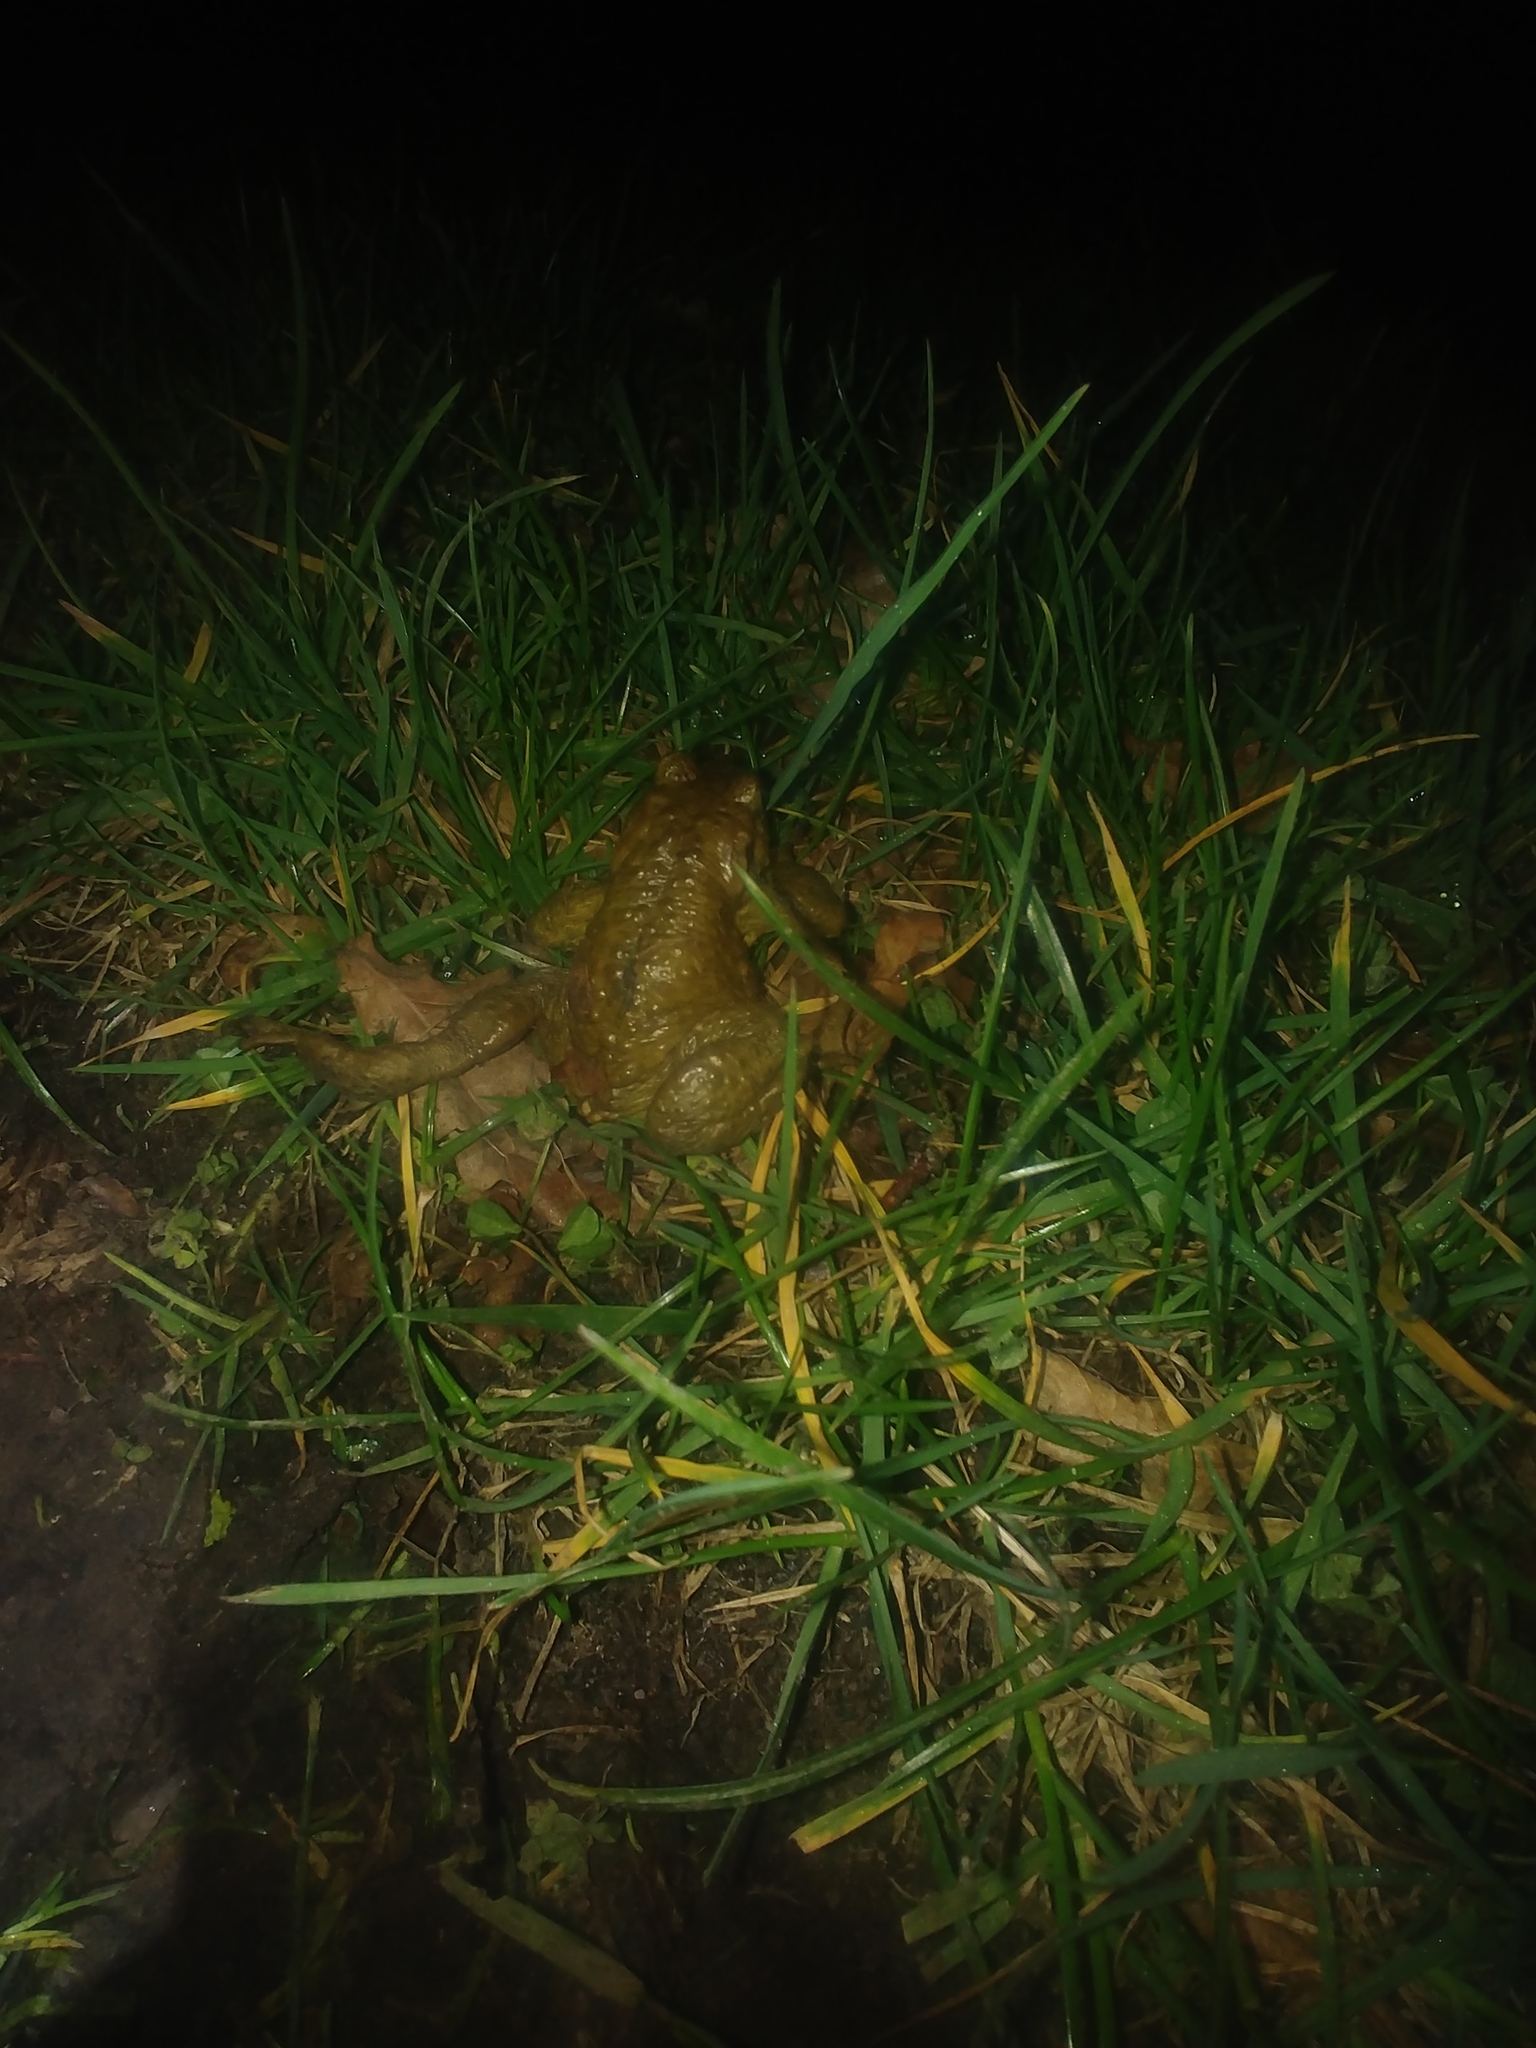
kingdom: Animalia
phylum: Chordata
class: Amphibia
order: Anura
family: Bufonidae
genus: Bufo
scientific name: Bufo spinosus
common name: Western common toad
